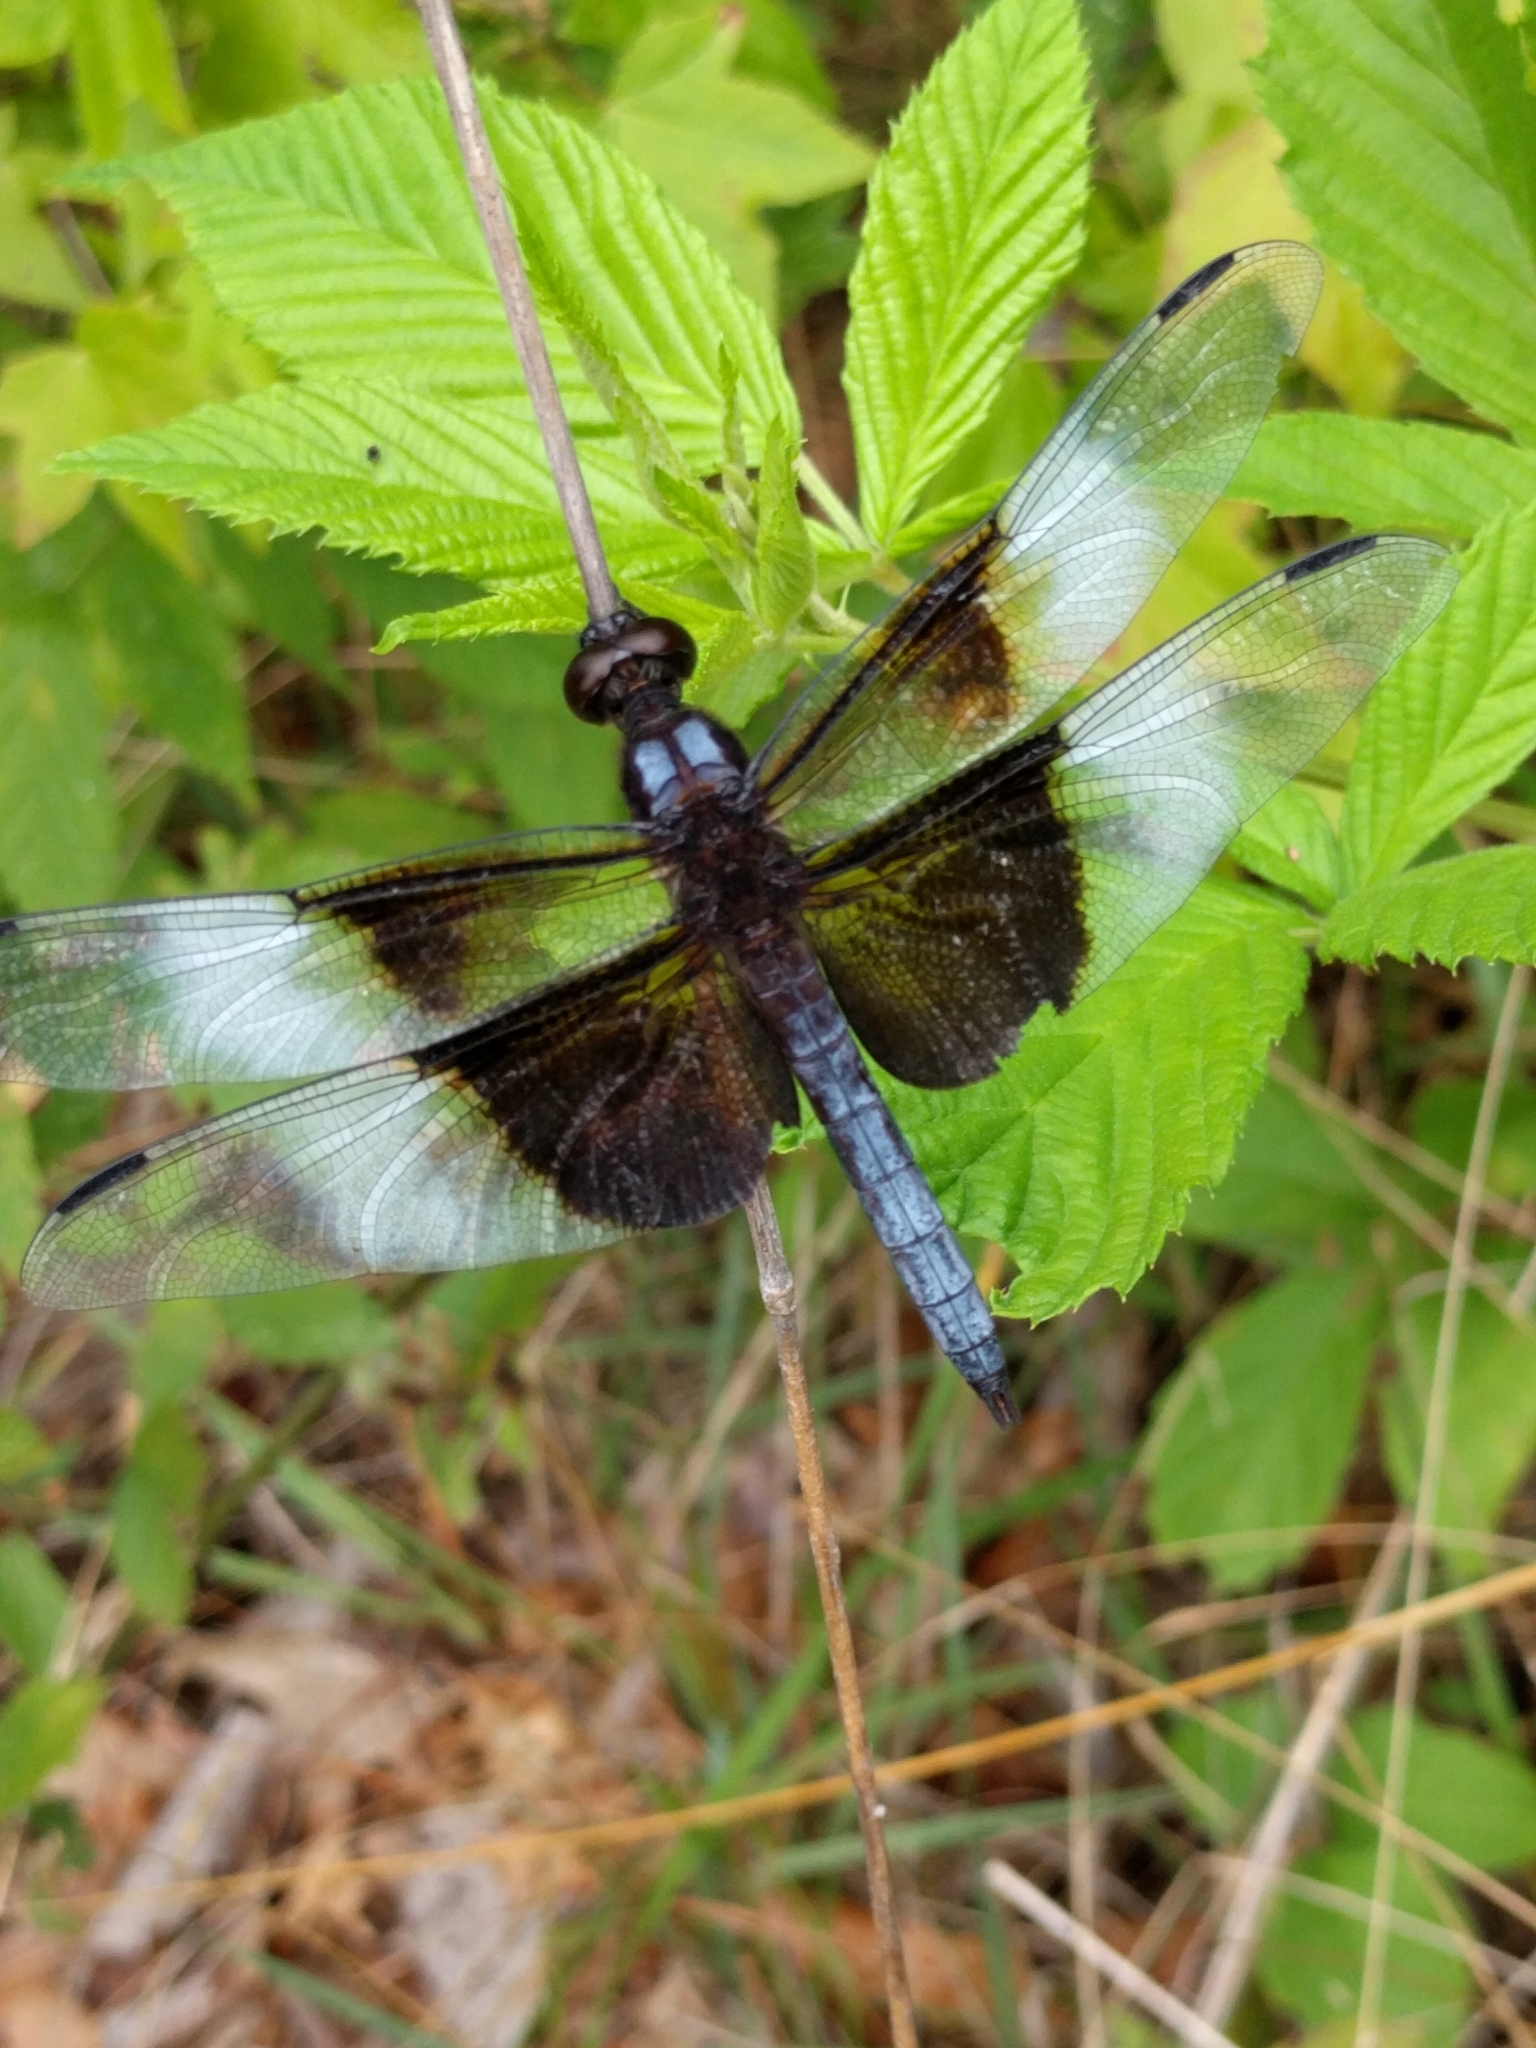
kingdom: Animalia
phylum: Arthropoda
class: Insecta
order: Odonata
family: Libellulidae
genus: Libellula
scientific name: Libellula luctuosa
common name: Widow skimmer
